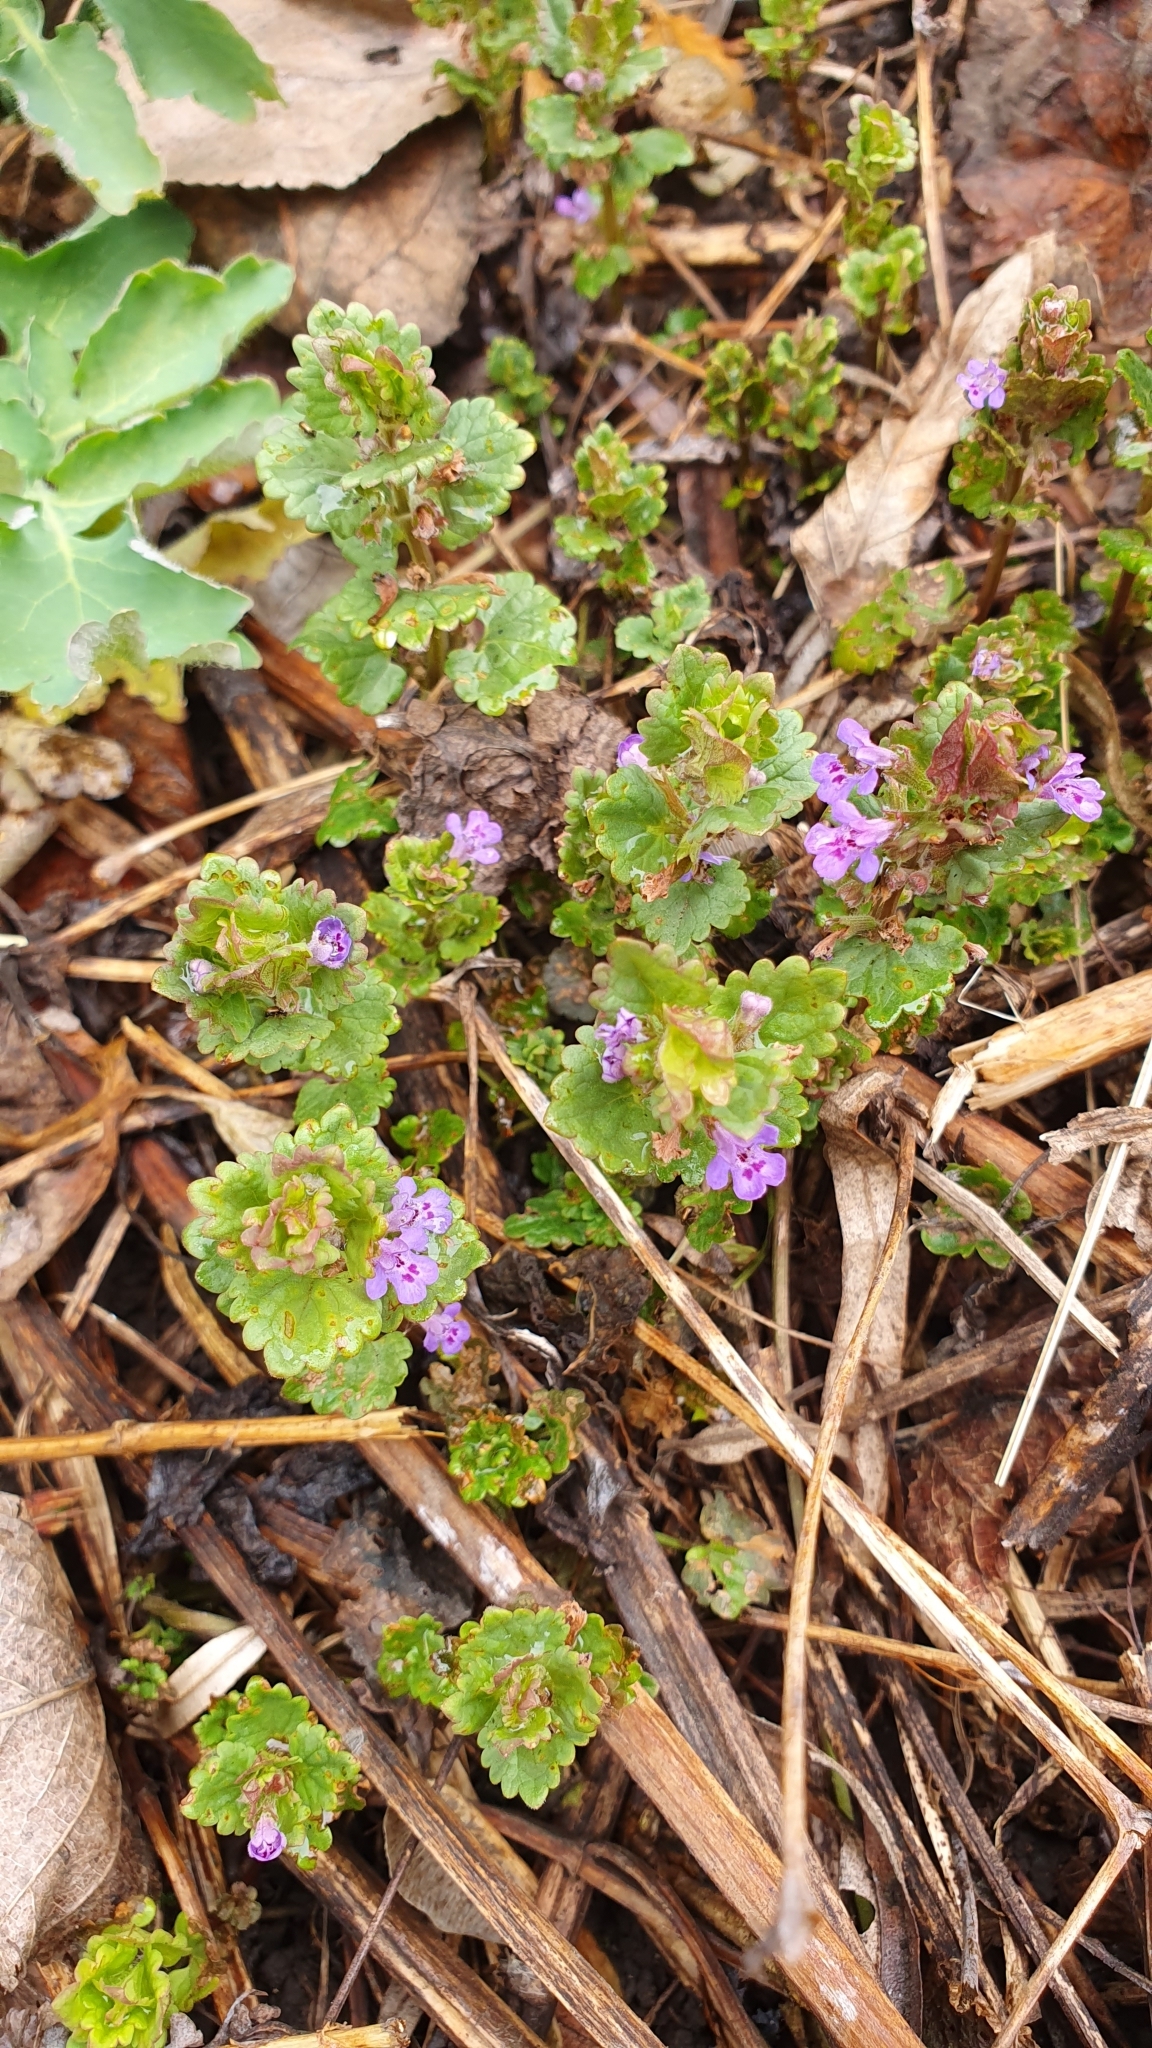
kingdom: Plantae
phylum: Tracheophyta
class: Magnoliopsida
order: Lamiales
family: Lamiaceae
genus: Glechoma
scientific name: Glechoma hederacea
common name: Ground ivy
